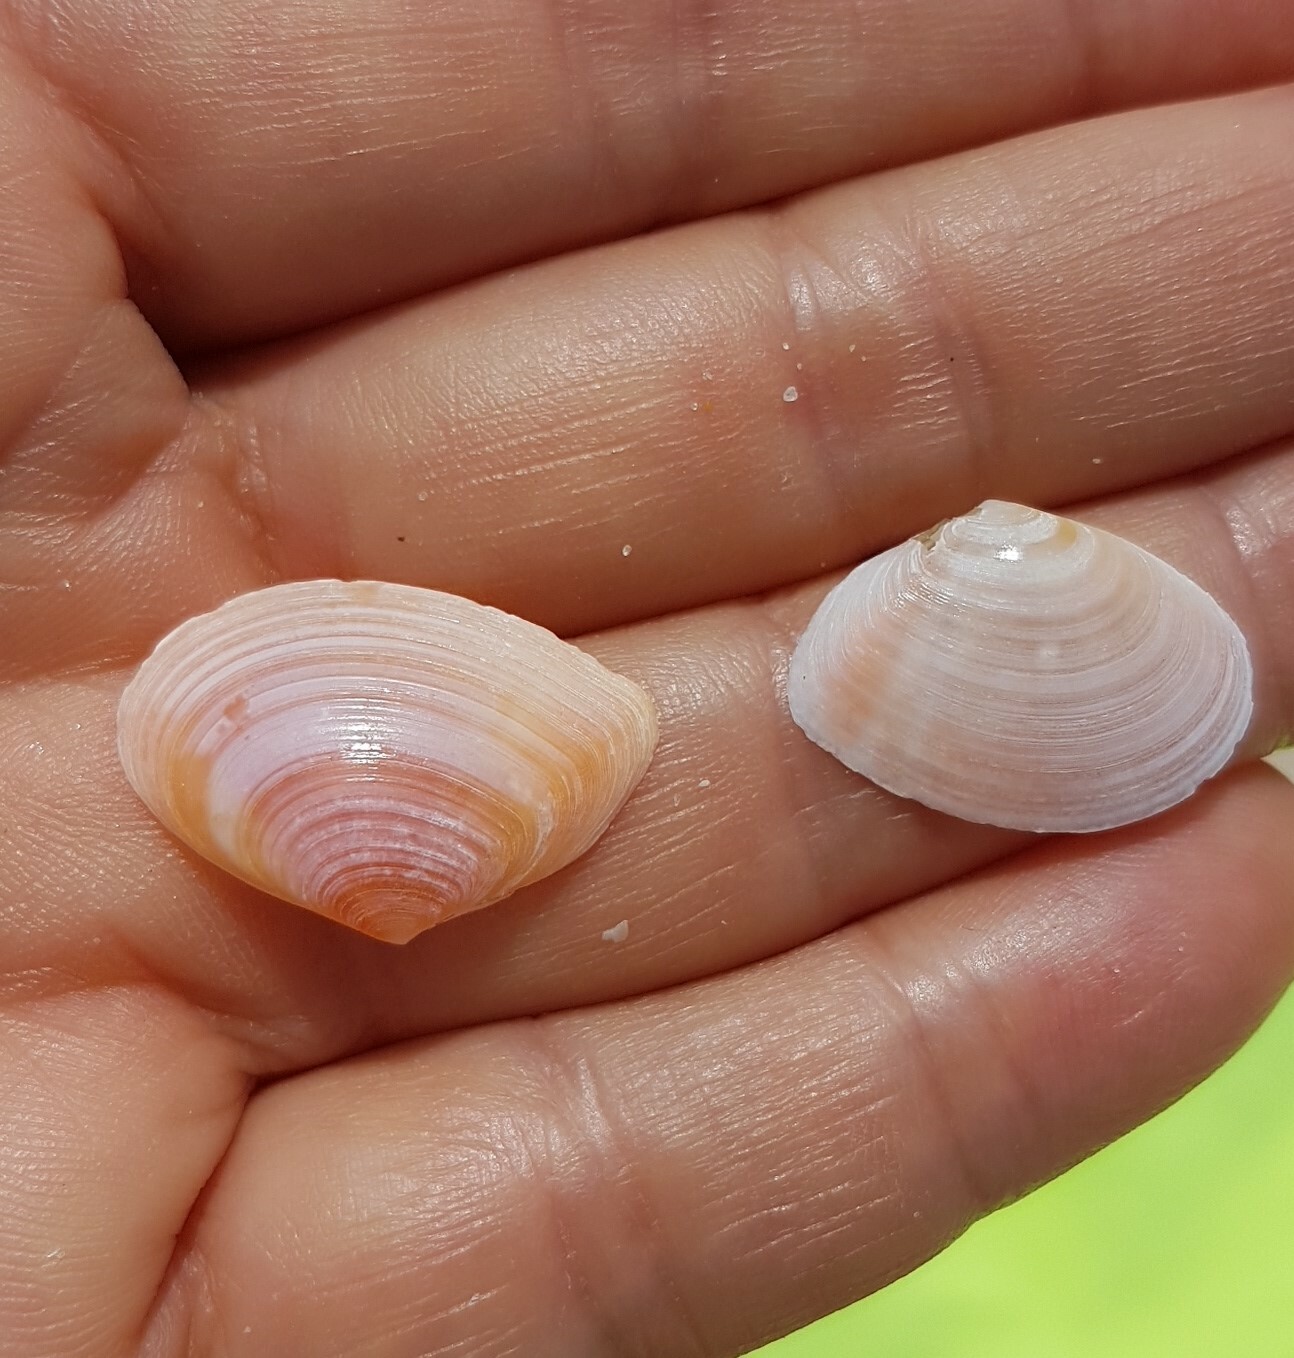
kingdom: Animalia
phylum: Mollusca
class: Bivalvia
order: Cardiida
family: Tellinidae
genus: Macomangulus
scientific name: Macomangulus tenuis
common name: Thin tellin
